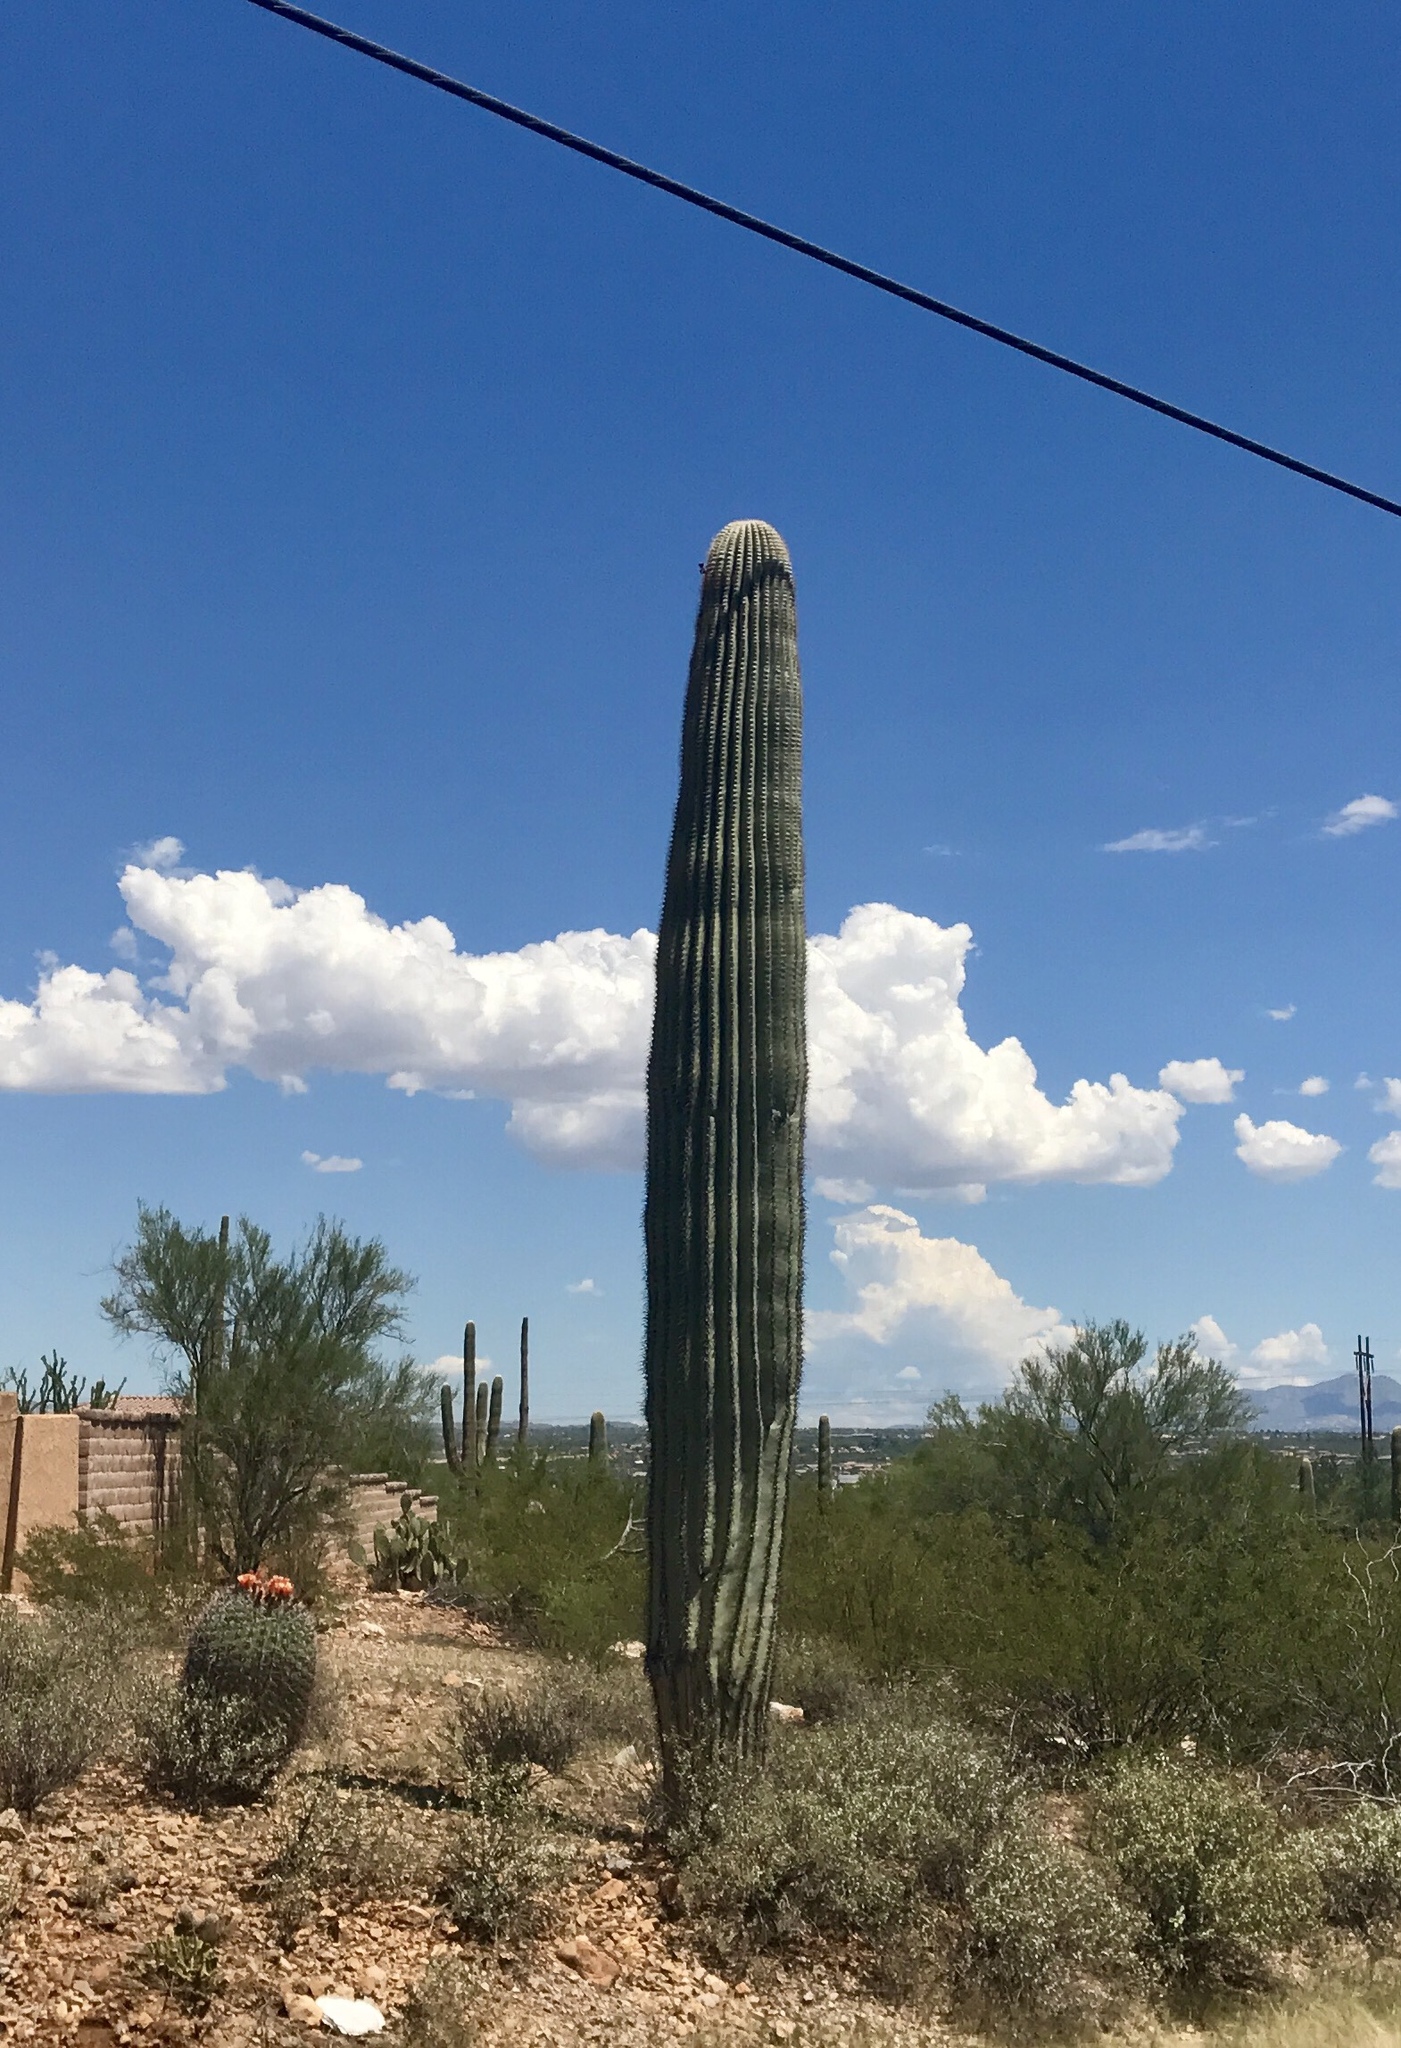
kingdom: Plantae
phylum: Tracheophyta
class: Magnoliopsida
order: Caryophyllales
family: Cactaceae
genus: Carnegiea
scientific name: Carnegiea gigantea
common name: Saguaro
